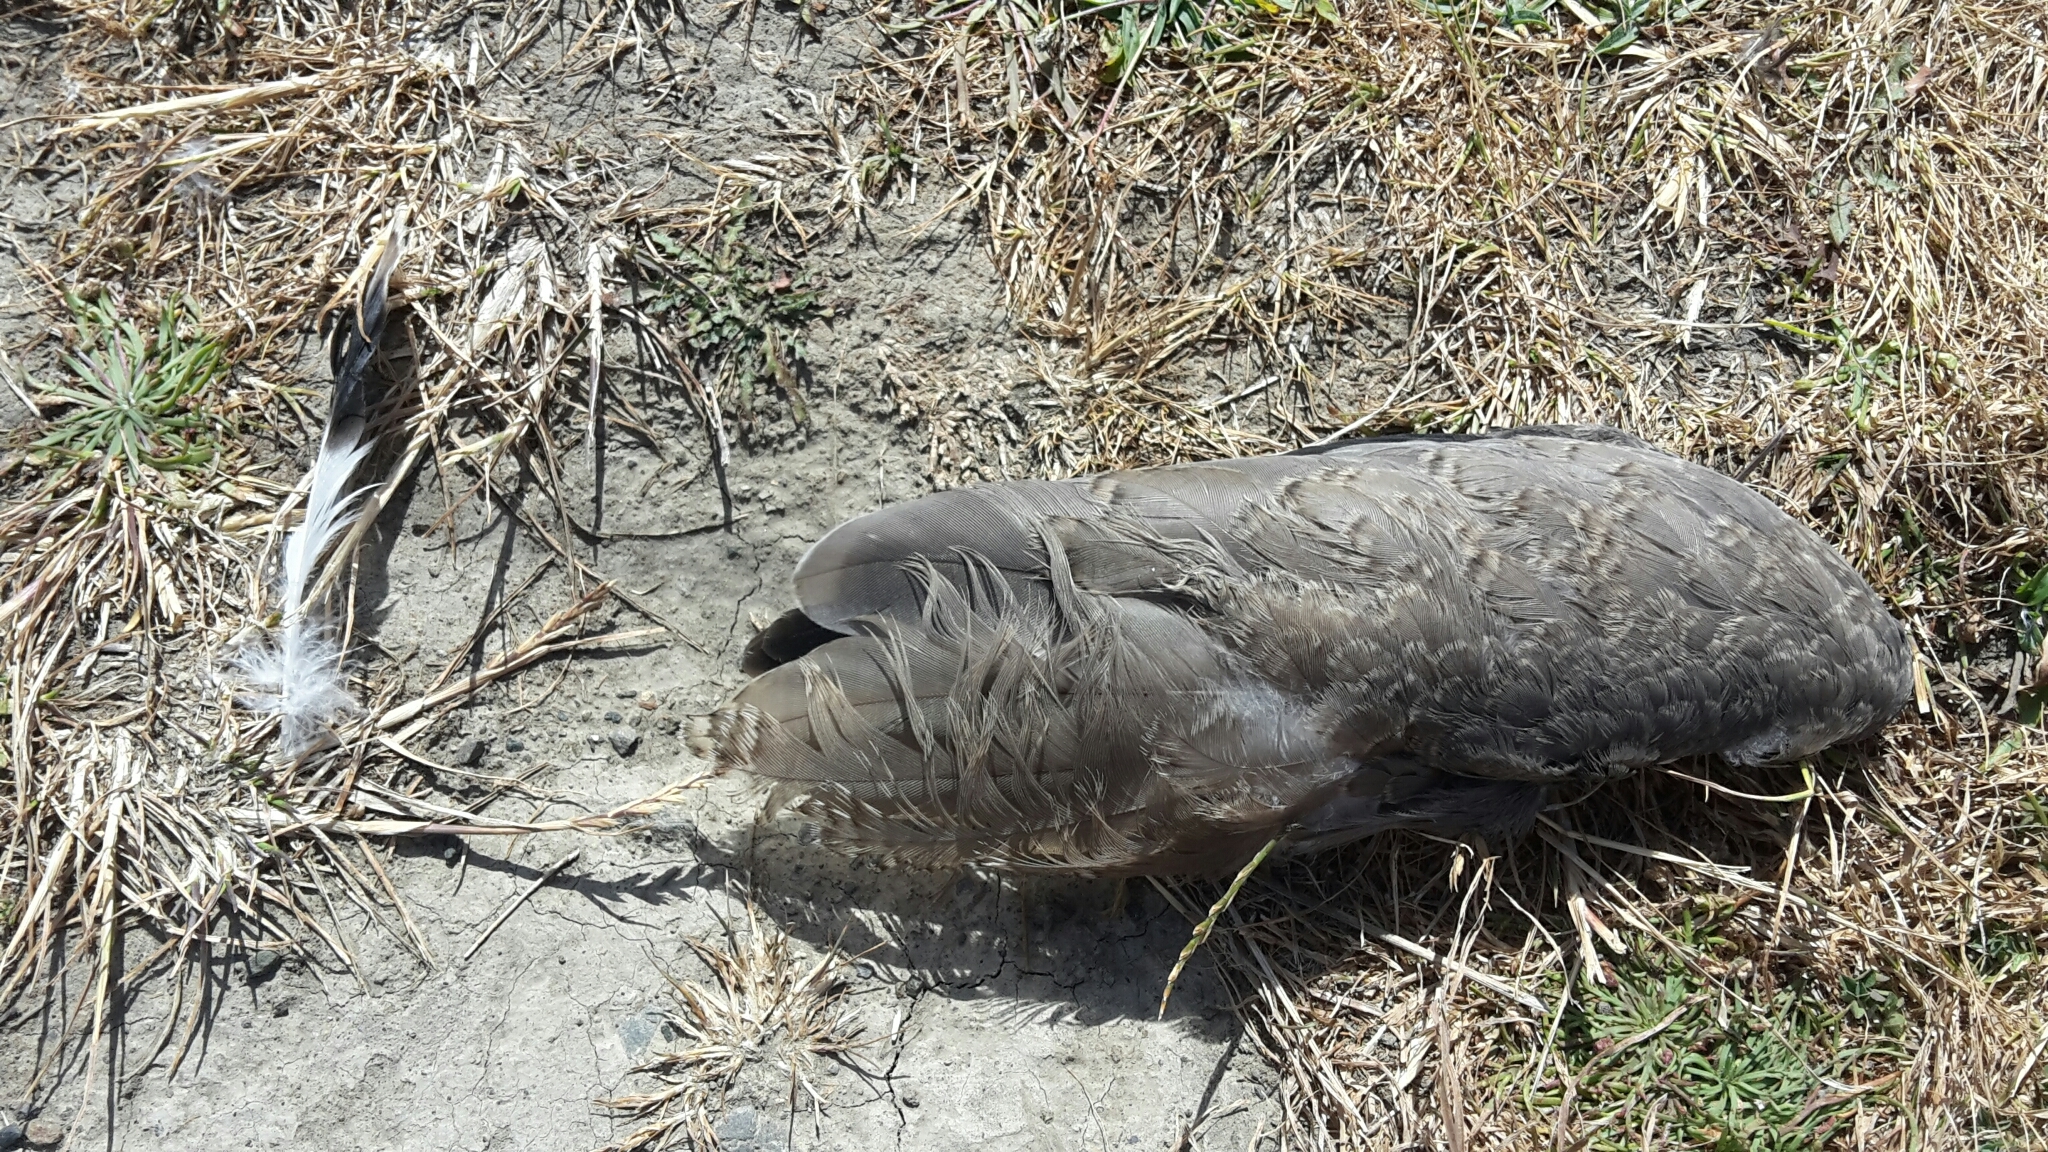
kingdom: Animalia
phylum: Chordata
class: Aves
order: Charadriiformes
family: Charadriidae
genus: Vanellus
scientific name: Vanellus miles
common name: Masked lapwing
